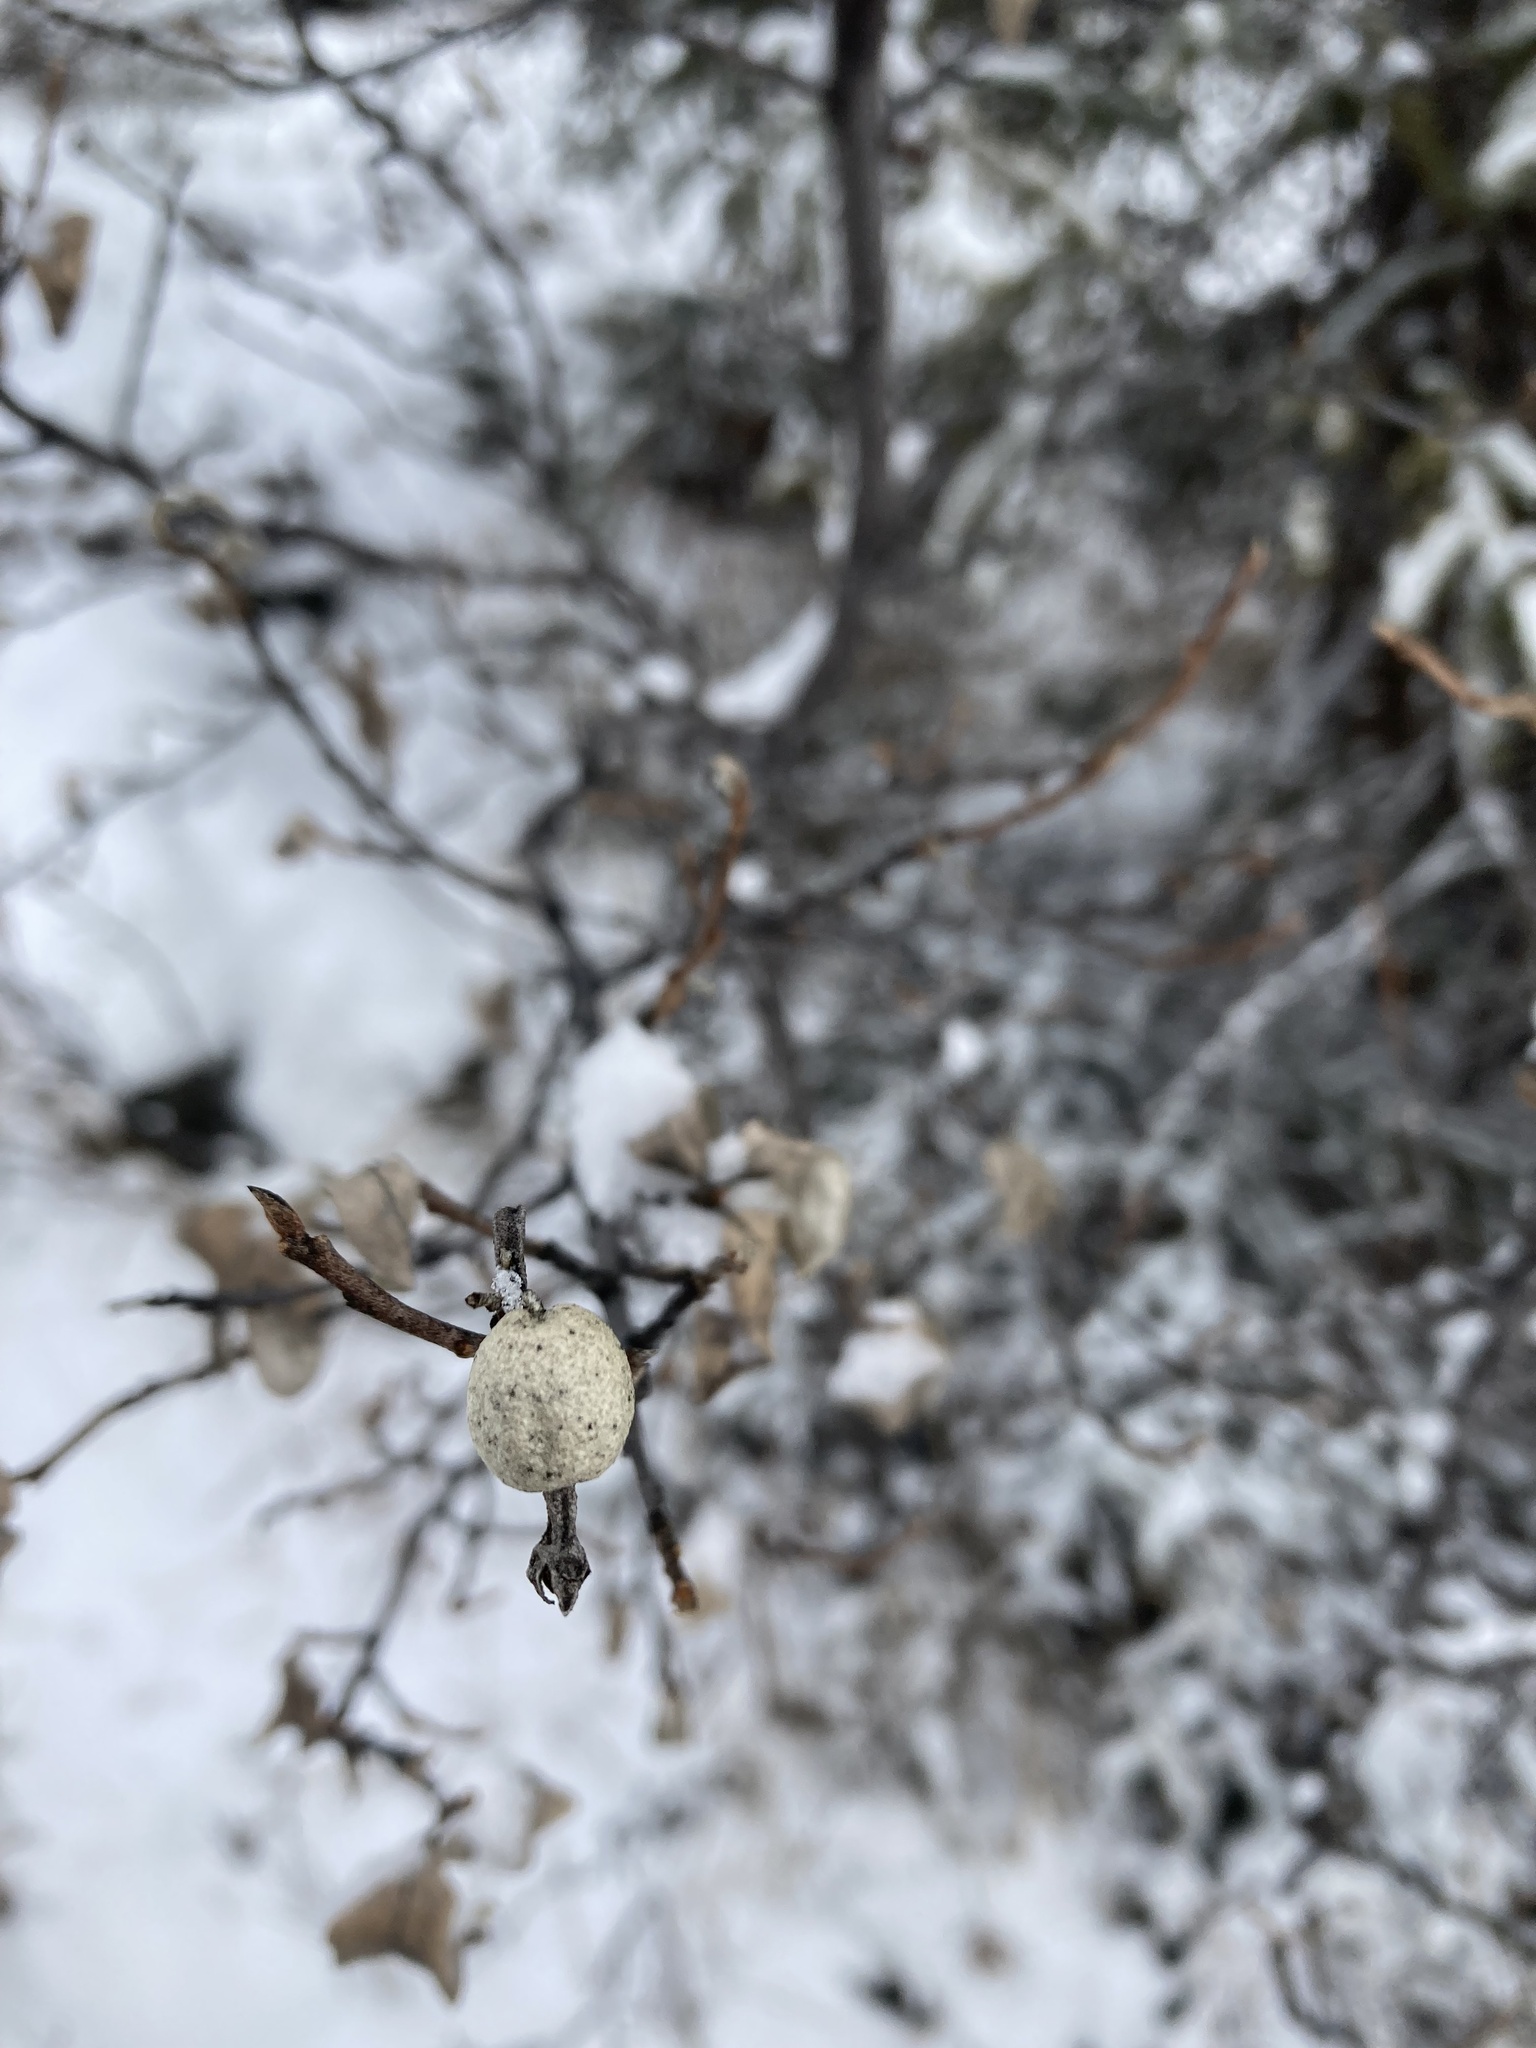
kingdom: Plantae
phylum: Tracheophyta
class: Magnoliopsida
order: Rosales
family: Elaeagnaceae
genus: Elaeagnus
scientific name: Elaeagnus commutata
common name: Silverberry
